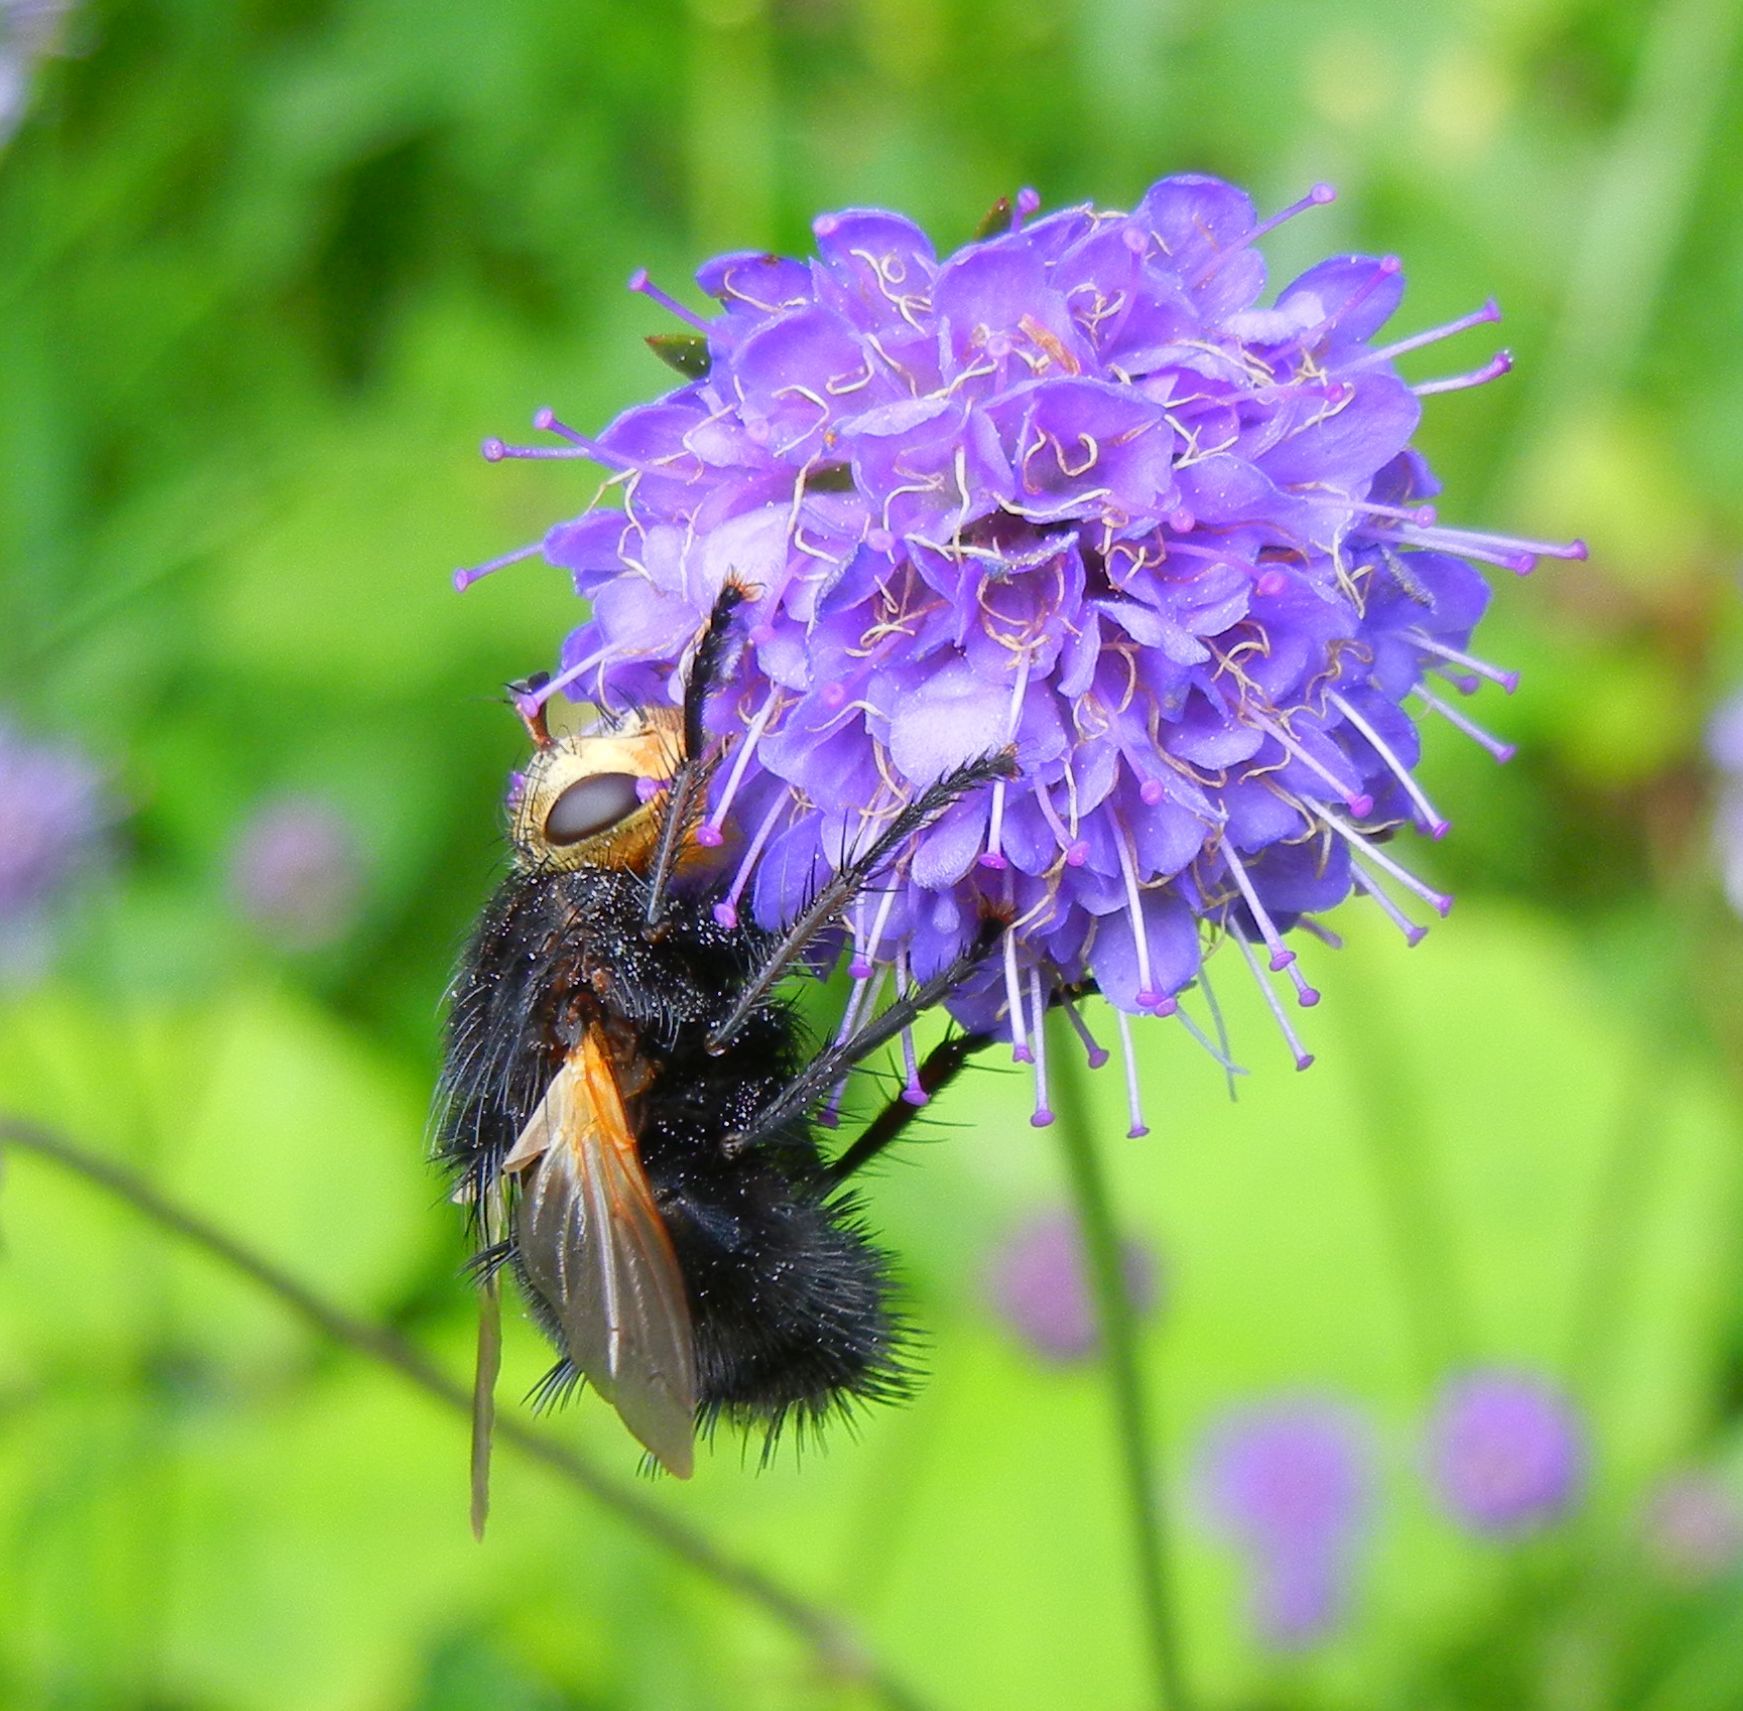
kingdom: Animalia
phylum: Arthropoda
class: Insecta
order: Diptera
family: Tachinidae
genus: Tachina
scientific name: Tachina grossa
